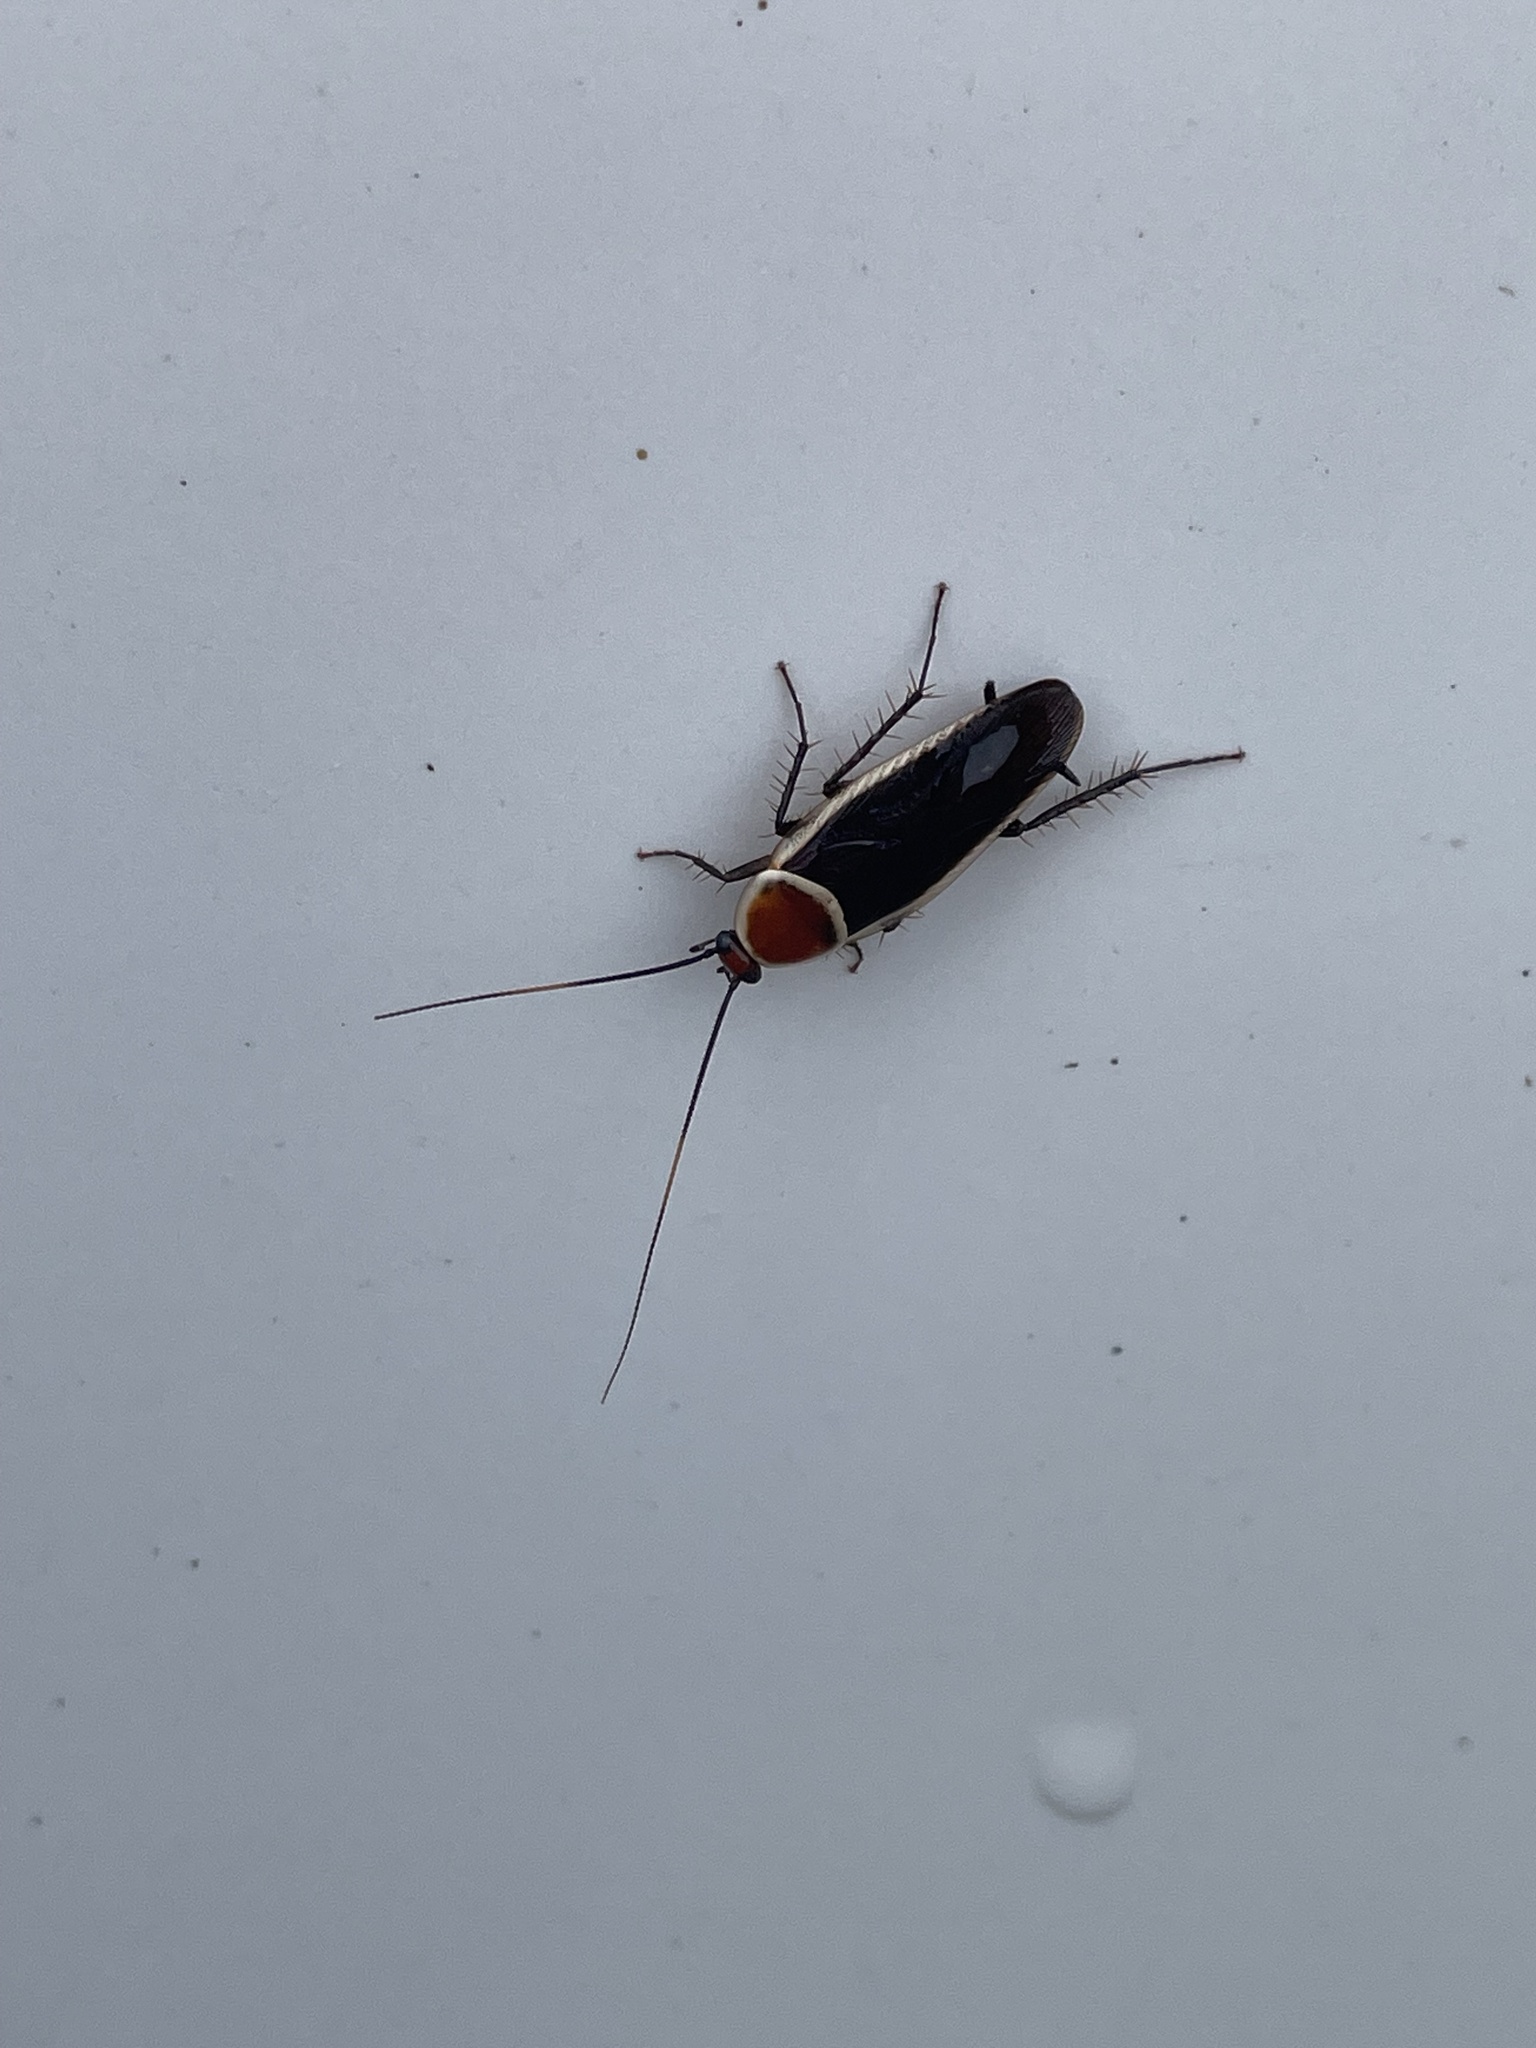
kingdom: Animalia
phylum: Arthropoda
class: Insecta
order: Blattodea
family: Ectobiidae
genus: Pseudomops
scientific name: Pseudomops septentrionalis
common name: Pale-bordered field cockroach
